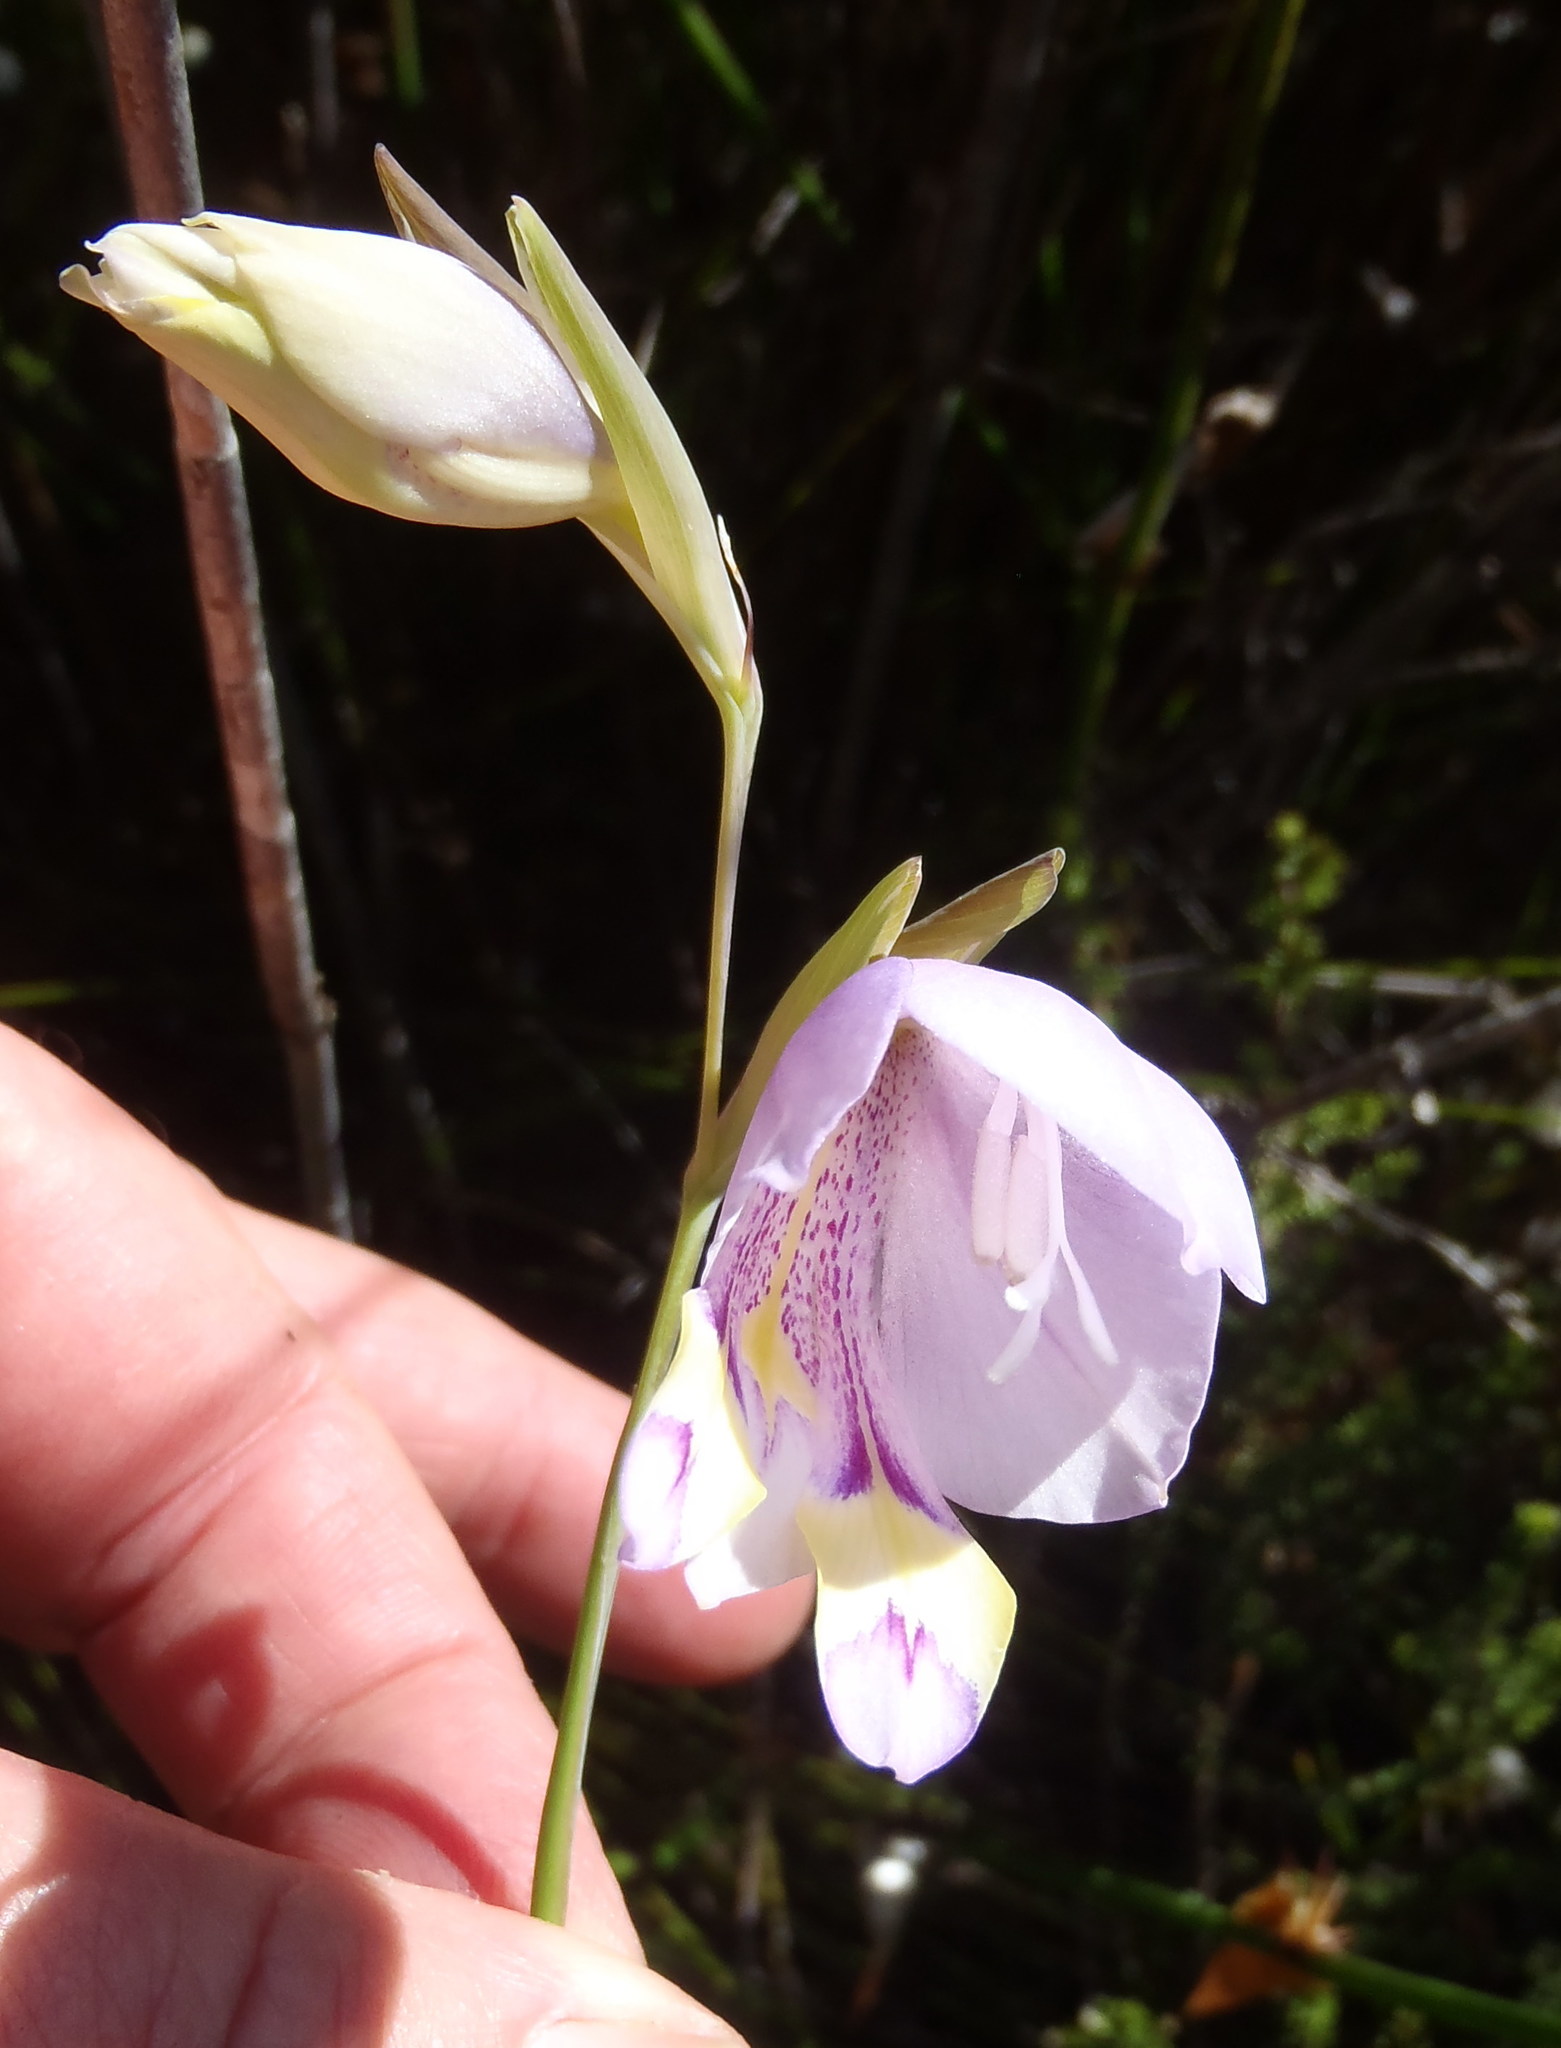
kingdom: Plantae
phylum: Tracheophyta
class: Liliopsida
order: Asparagales
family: Iridaceae
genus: Gladiolus
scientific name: Gladiolus rogersii
